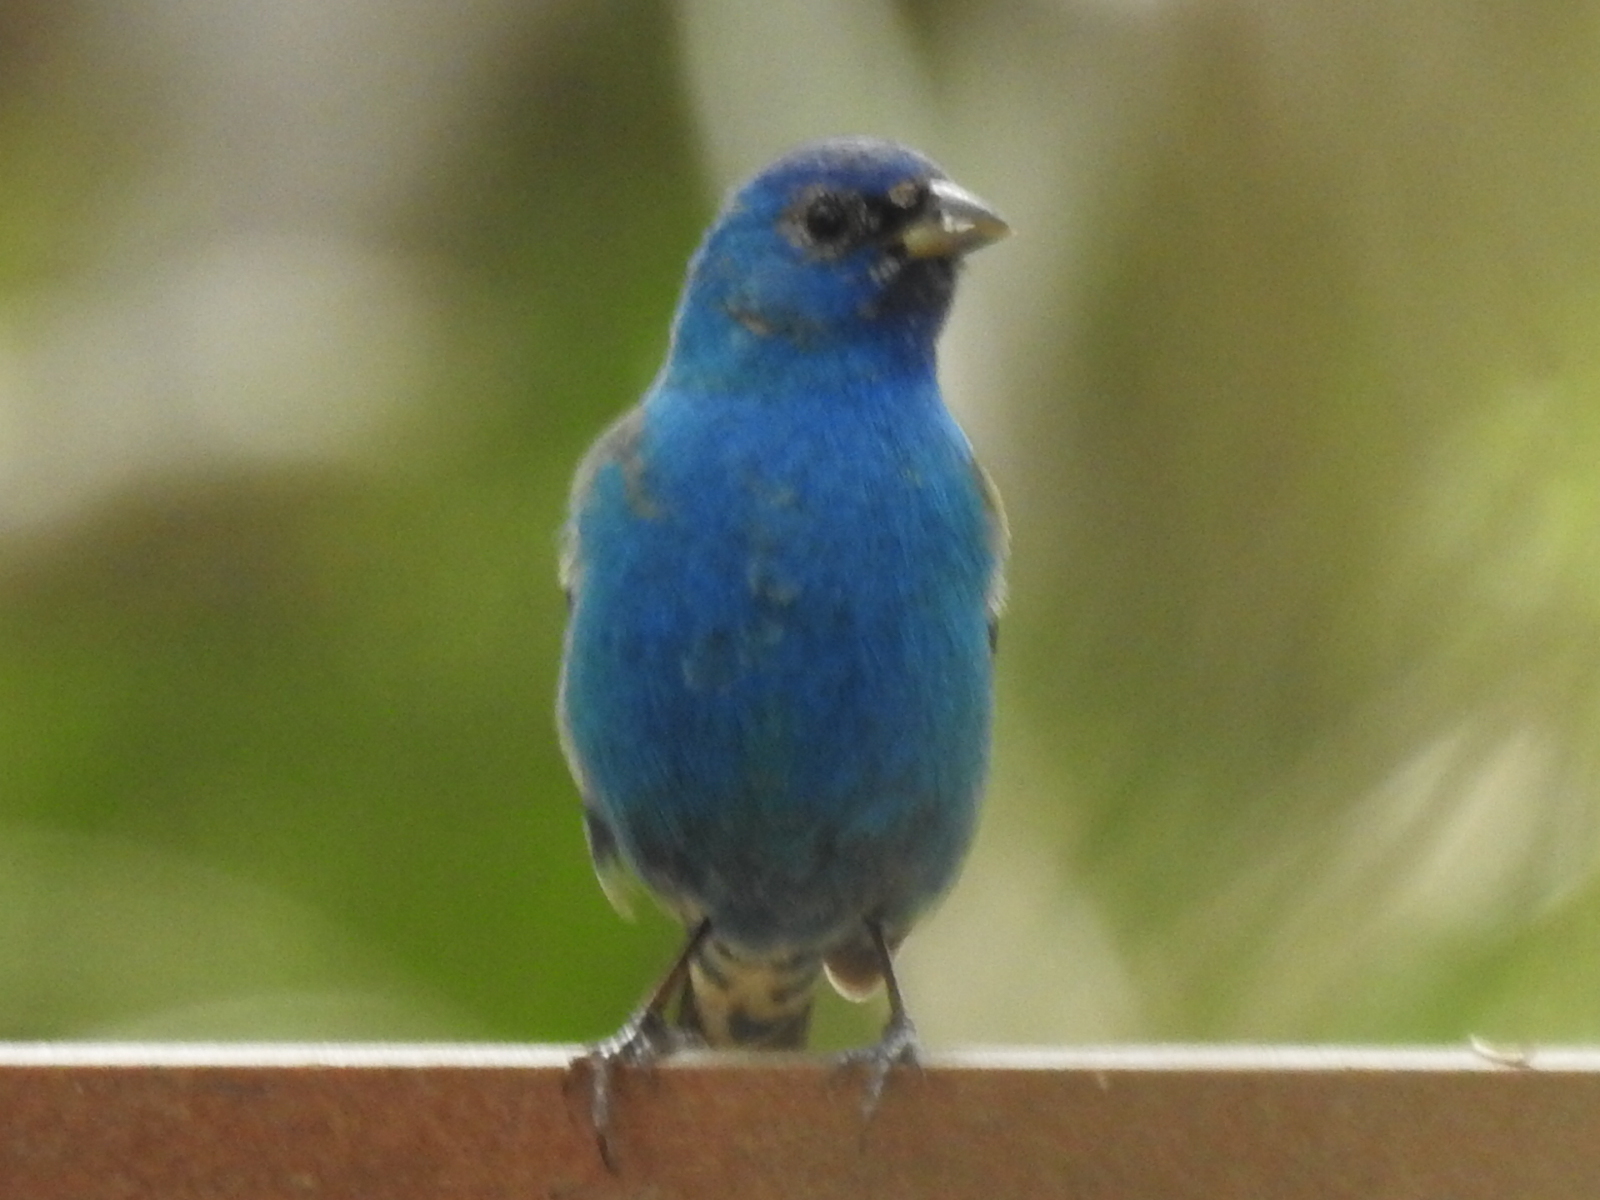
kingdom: Animalia
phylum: Chordata
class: Aves
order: Passeriformes
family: Cardinalidae
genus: Passerina
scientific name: Passerina cyanea
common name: Indigo bunting
